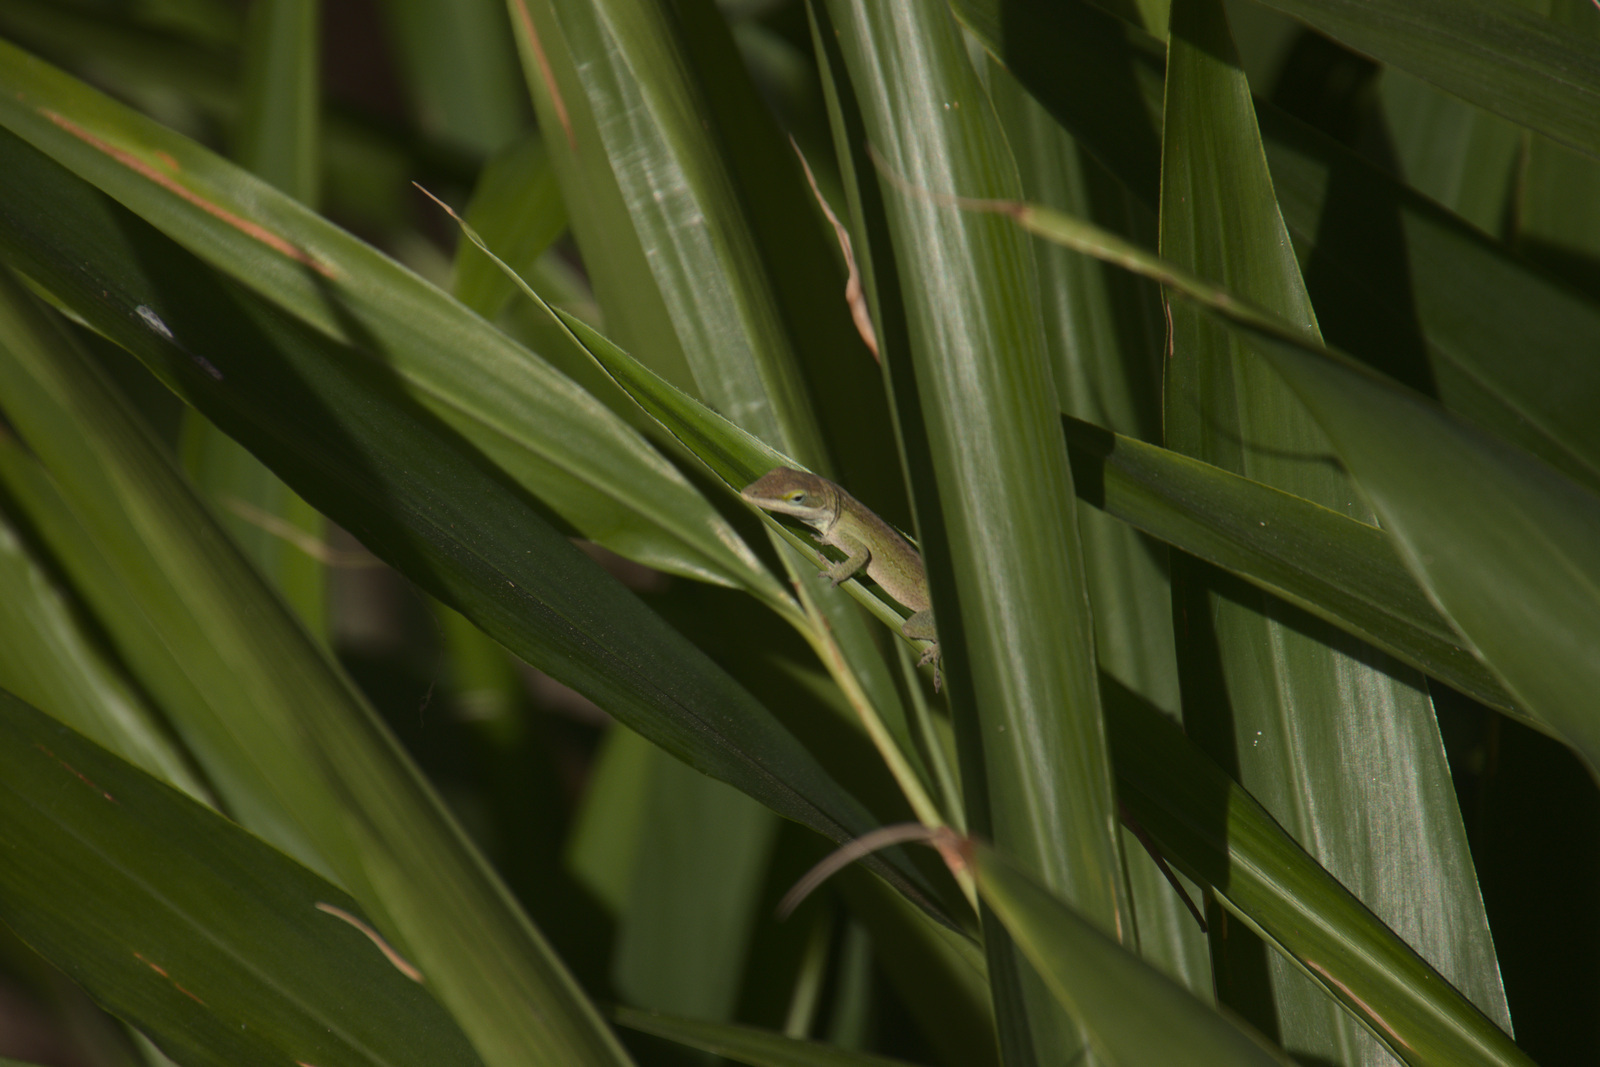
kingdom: Animalia
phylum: Chordata
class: Squamata
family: Dactyloidae
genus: Anolis
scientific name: Anolis carolinensis
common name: Green anole
